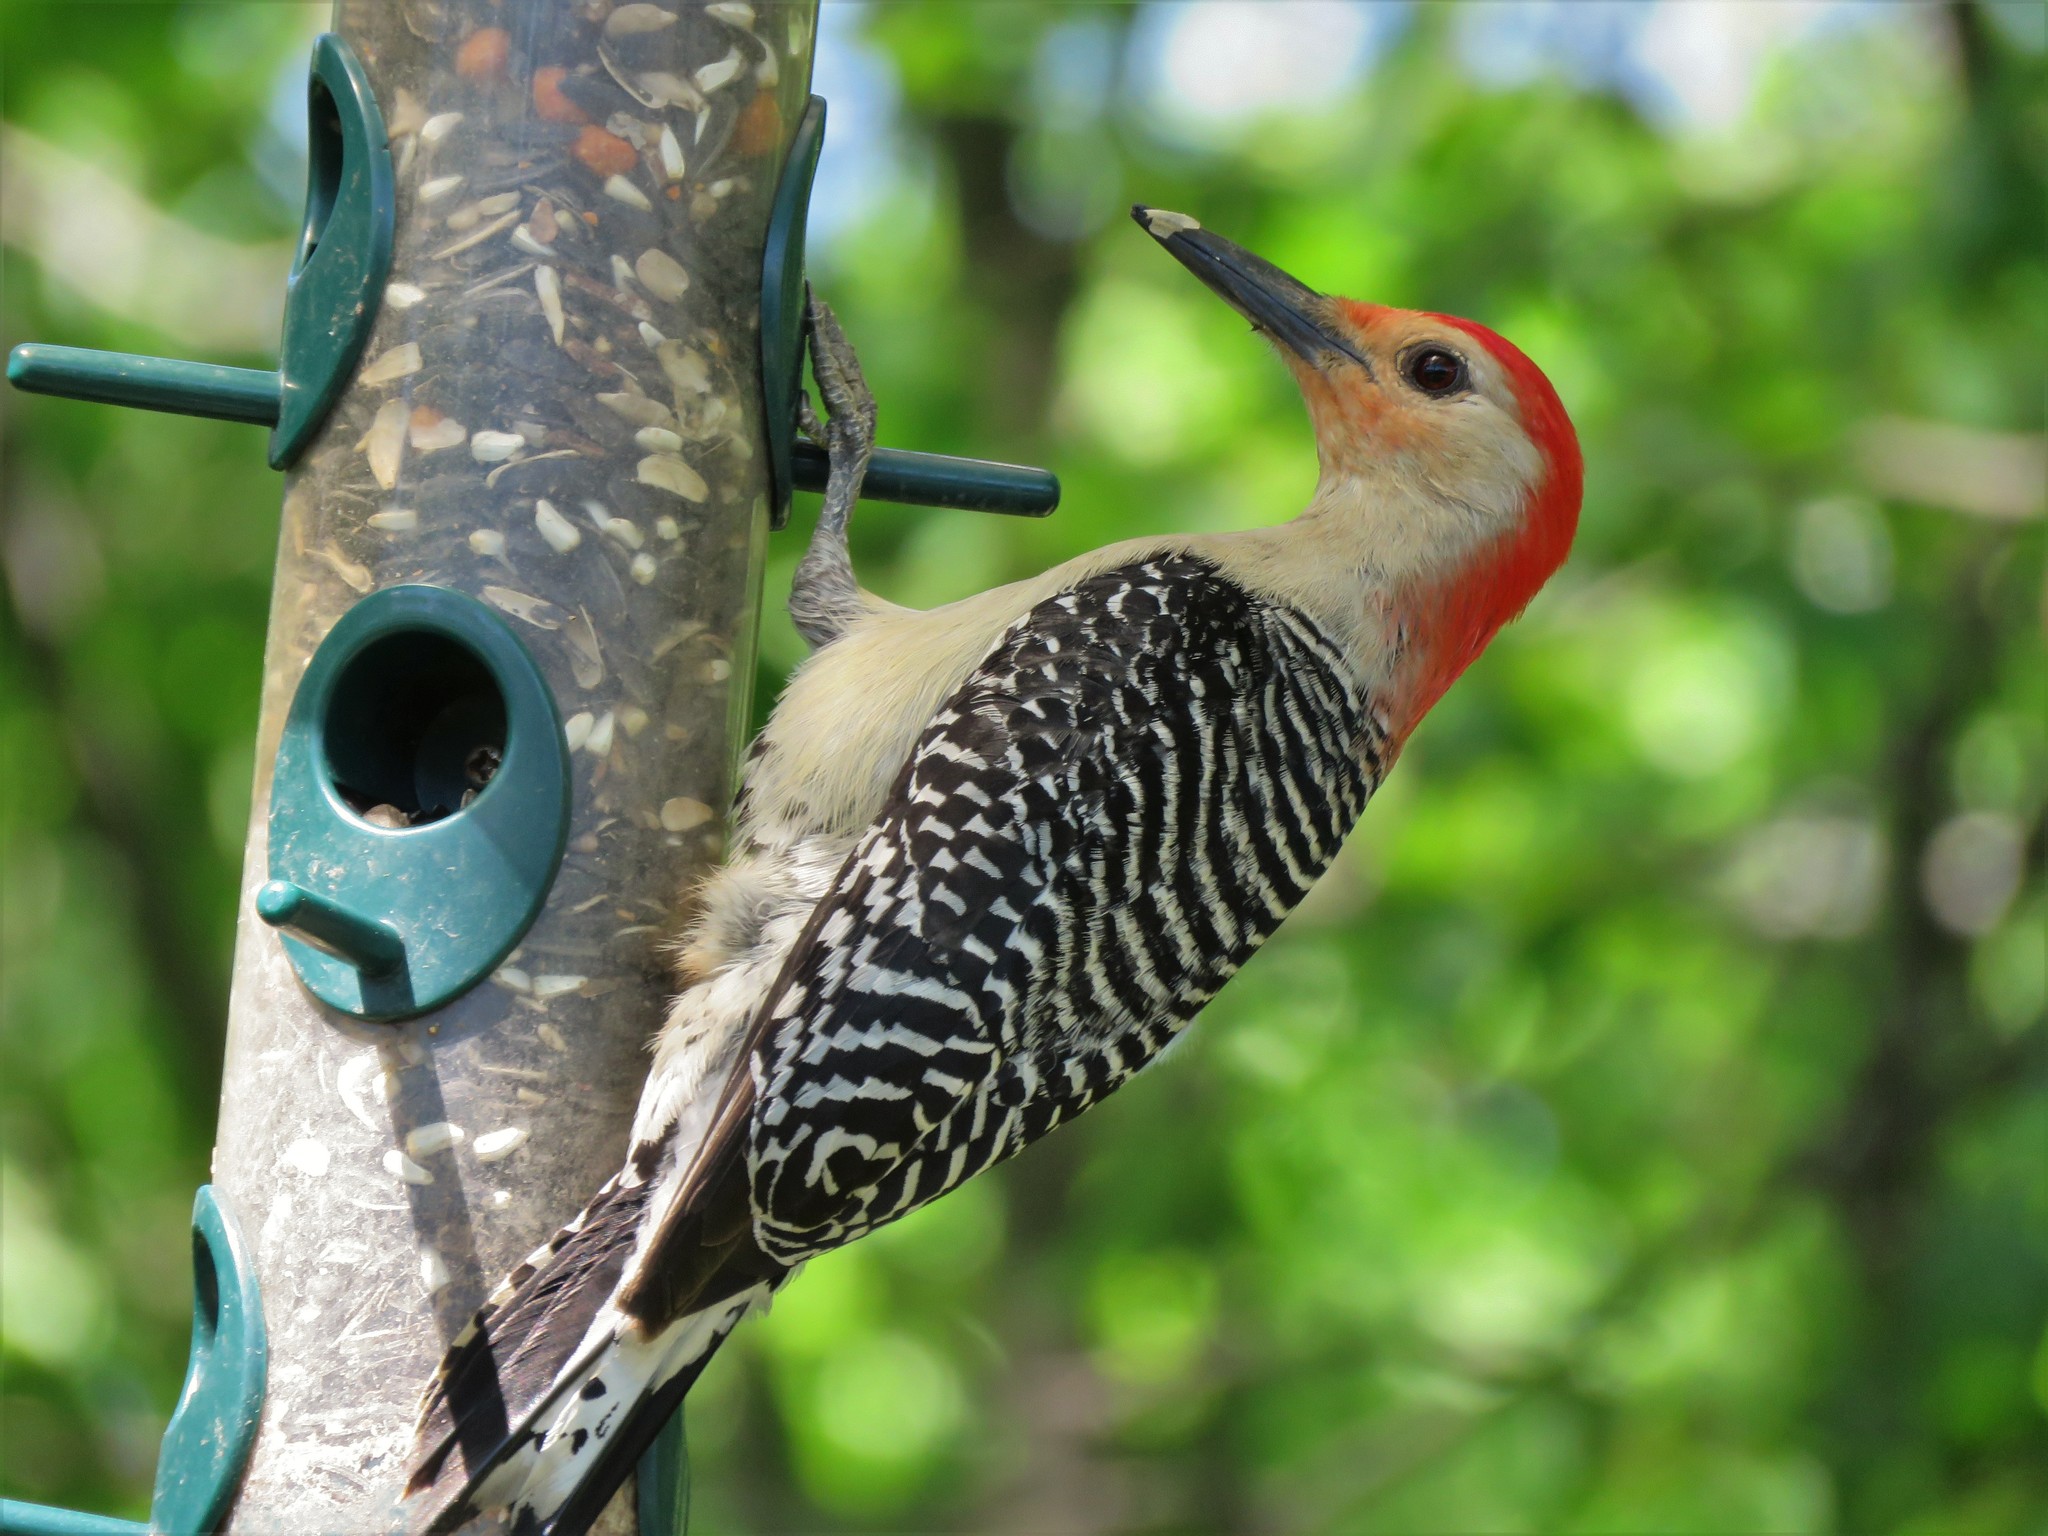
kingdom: Animalia
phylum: Chordata
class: Aves
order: Piciformes
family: Picidae
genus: Melanerpes
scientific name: Melanerpes carolinus
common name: Red-bellied woodpecker
